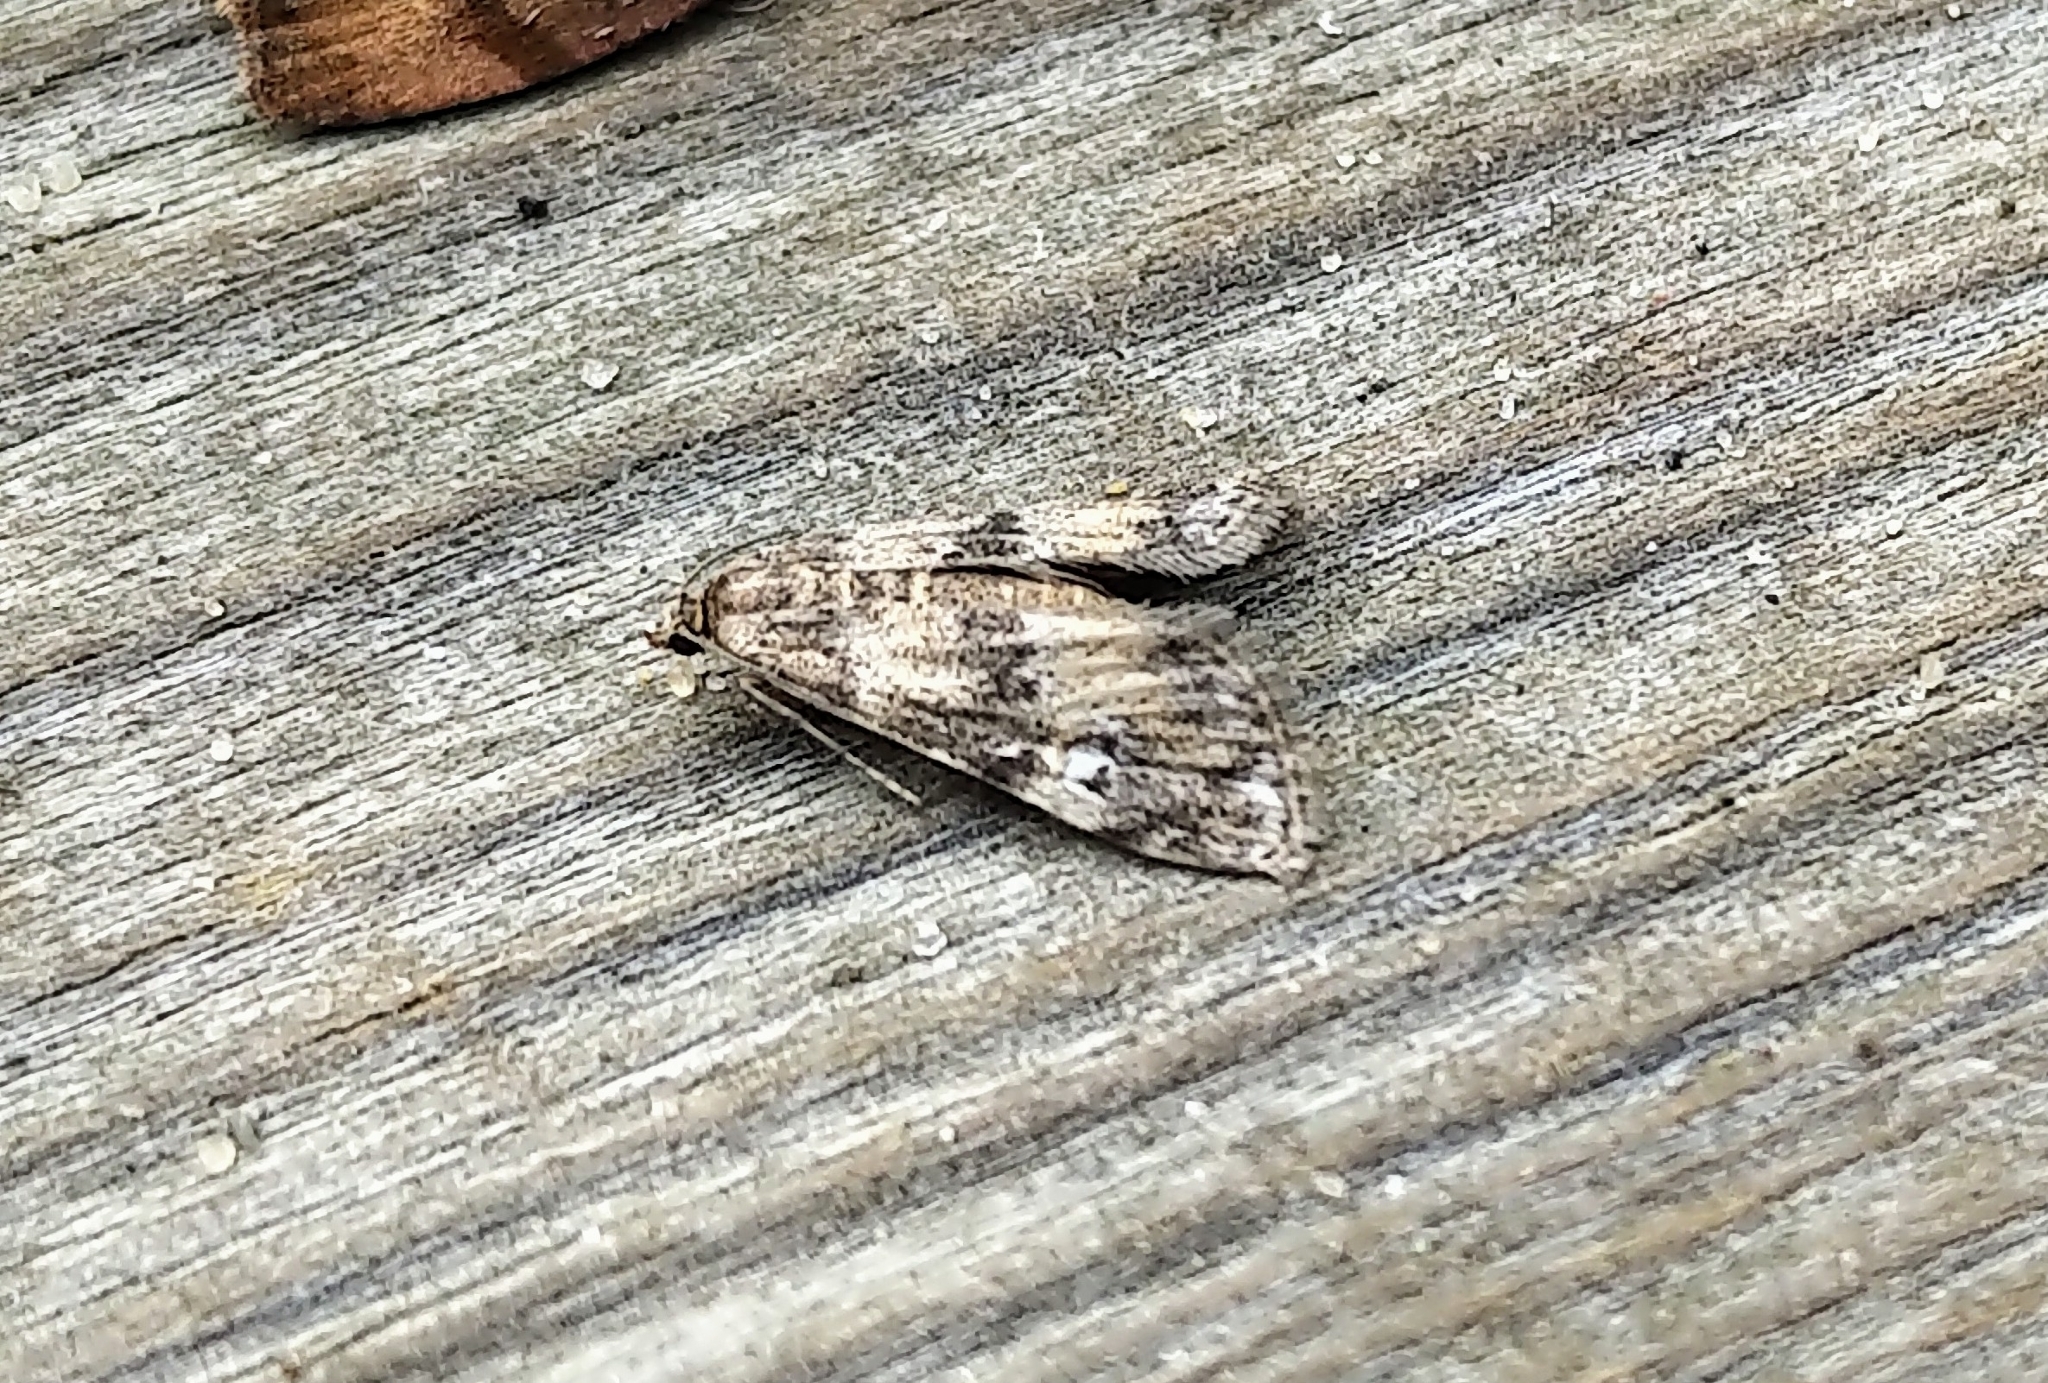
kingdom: Animalia
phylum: Arthropoda
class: Insecta
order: Lepidoptera
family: Crambidae
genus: Elophila
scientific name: Elophila obliteralis
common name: Waterlily leafcutter moth
